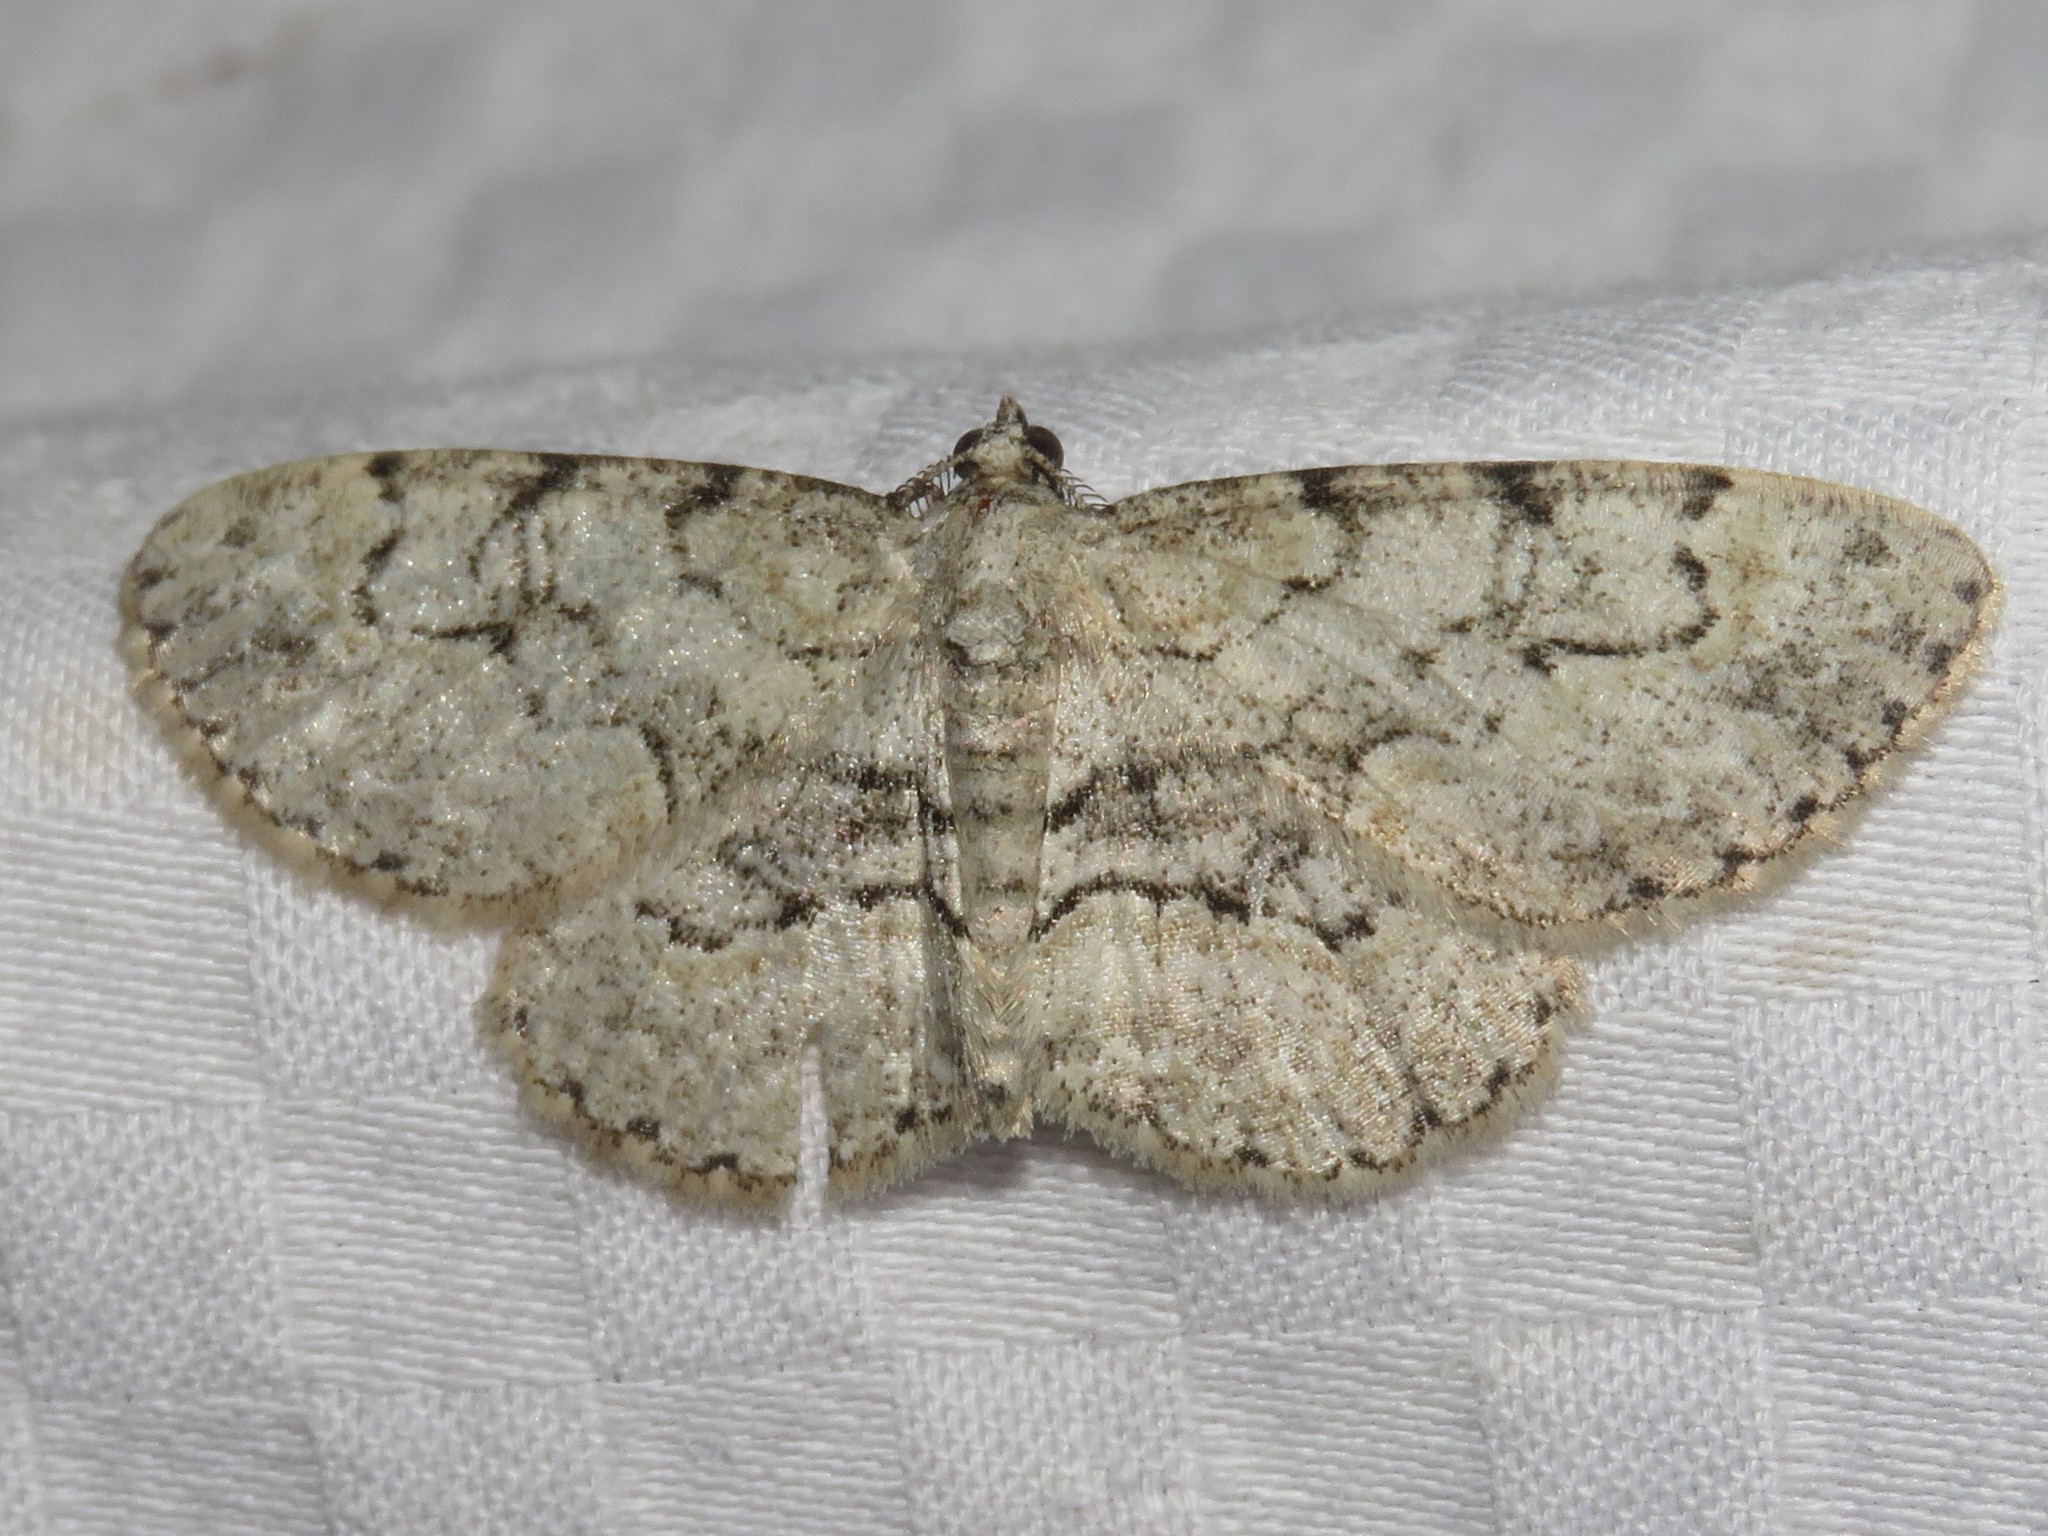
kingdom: Animalia
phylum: Arthropoda
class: Insecta
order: Lepidoptera
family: Geometridae
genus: Iridopsis
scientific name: Iridopsis ephyraria
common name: Pale-winged gray
